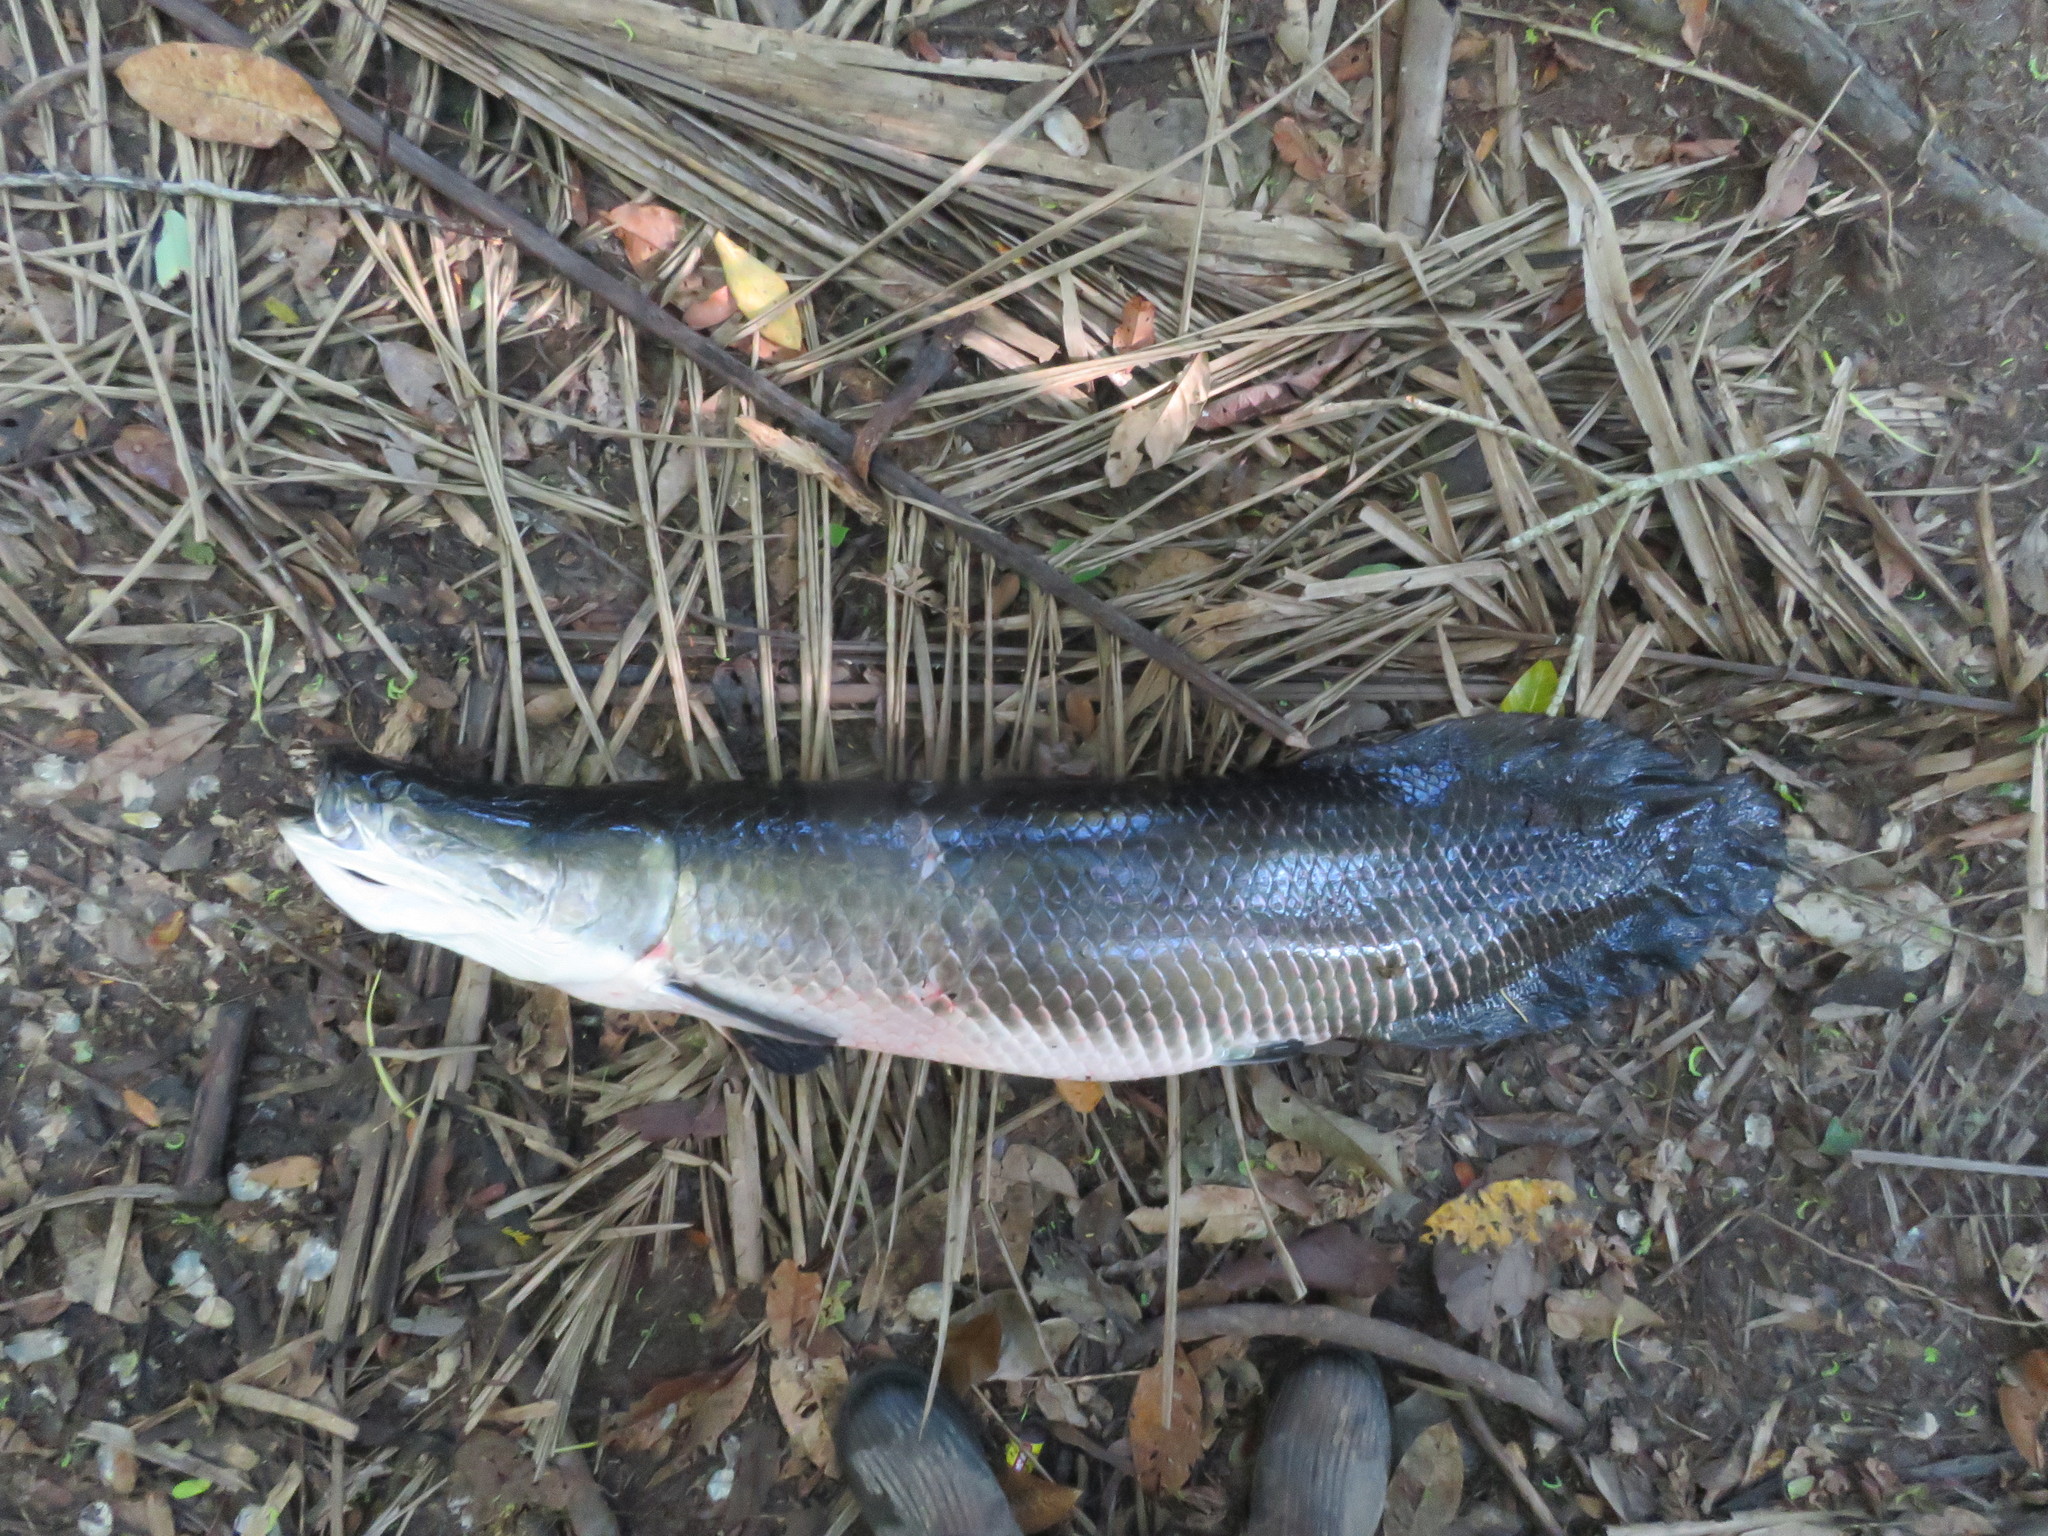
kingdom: Animalia
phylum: Chordata
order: Osteoglossiformes
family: Arapaimidae
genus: Arapaima
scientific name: Arapaima gigas
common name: Arapaima
